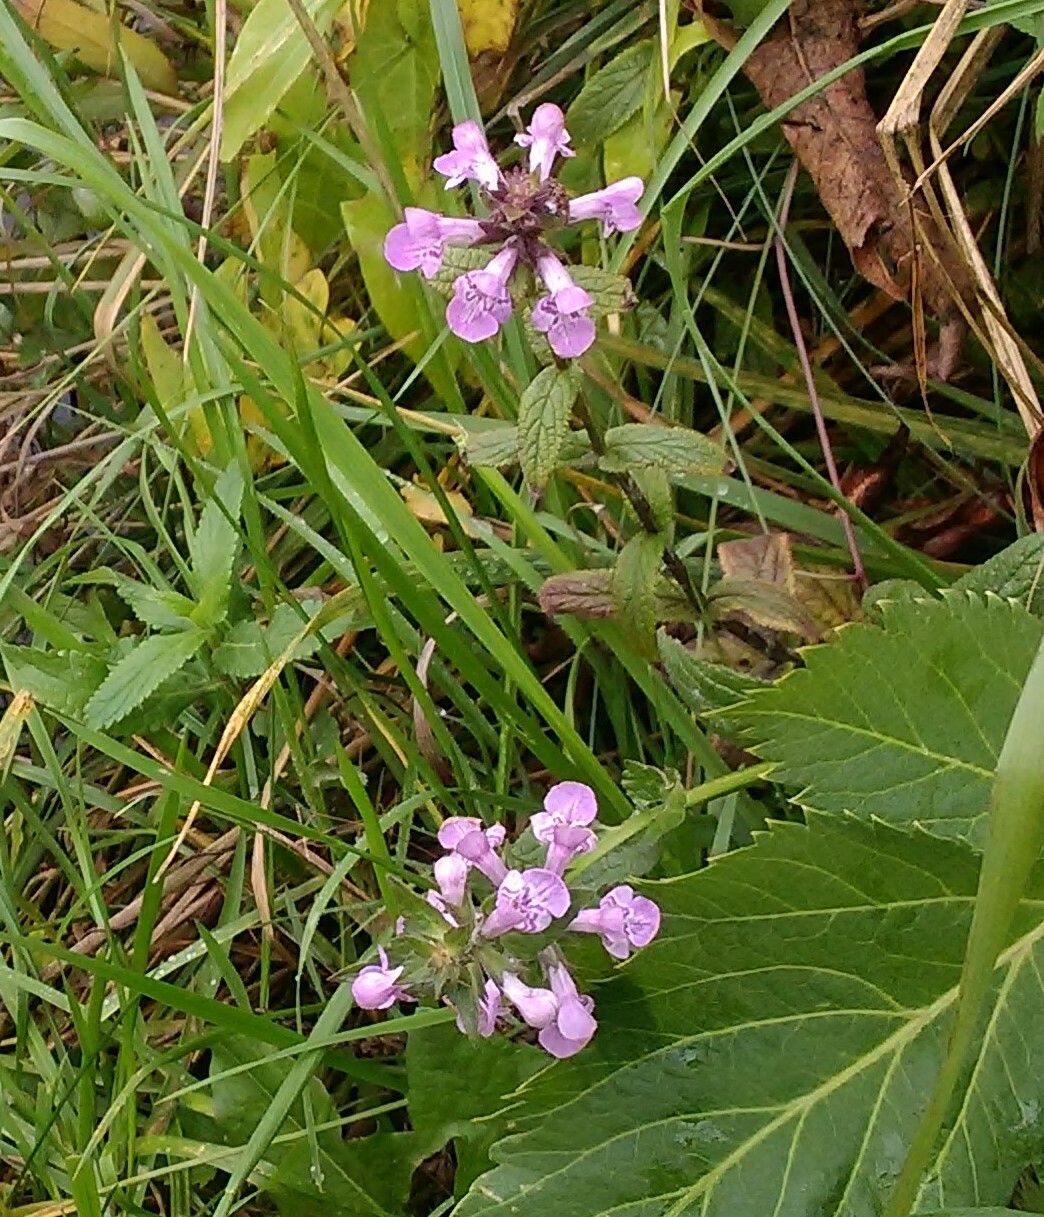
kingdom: Plantae
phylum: Tracheophyta
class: Magnoliopsida
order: Lamiales
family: Lamiaceae
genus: Stachys
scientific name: Stachys palustris
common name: Marsh woundwort
